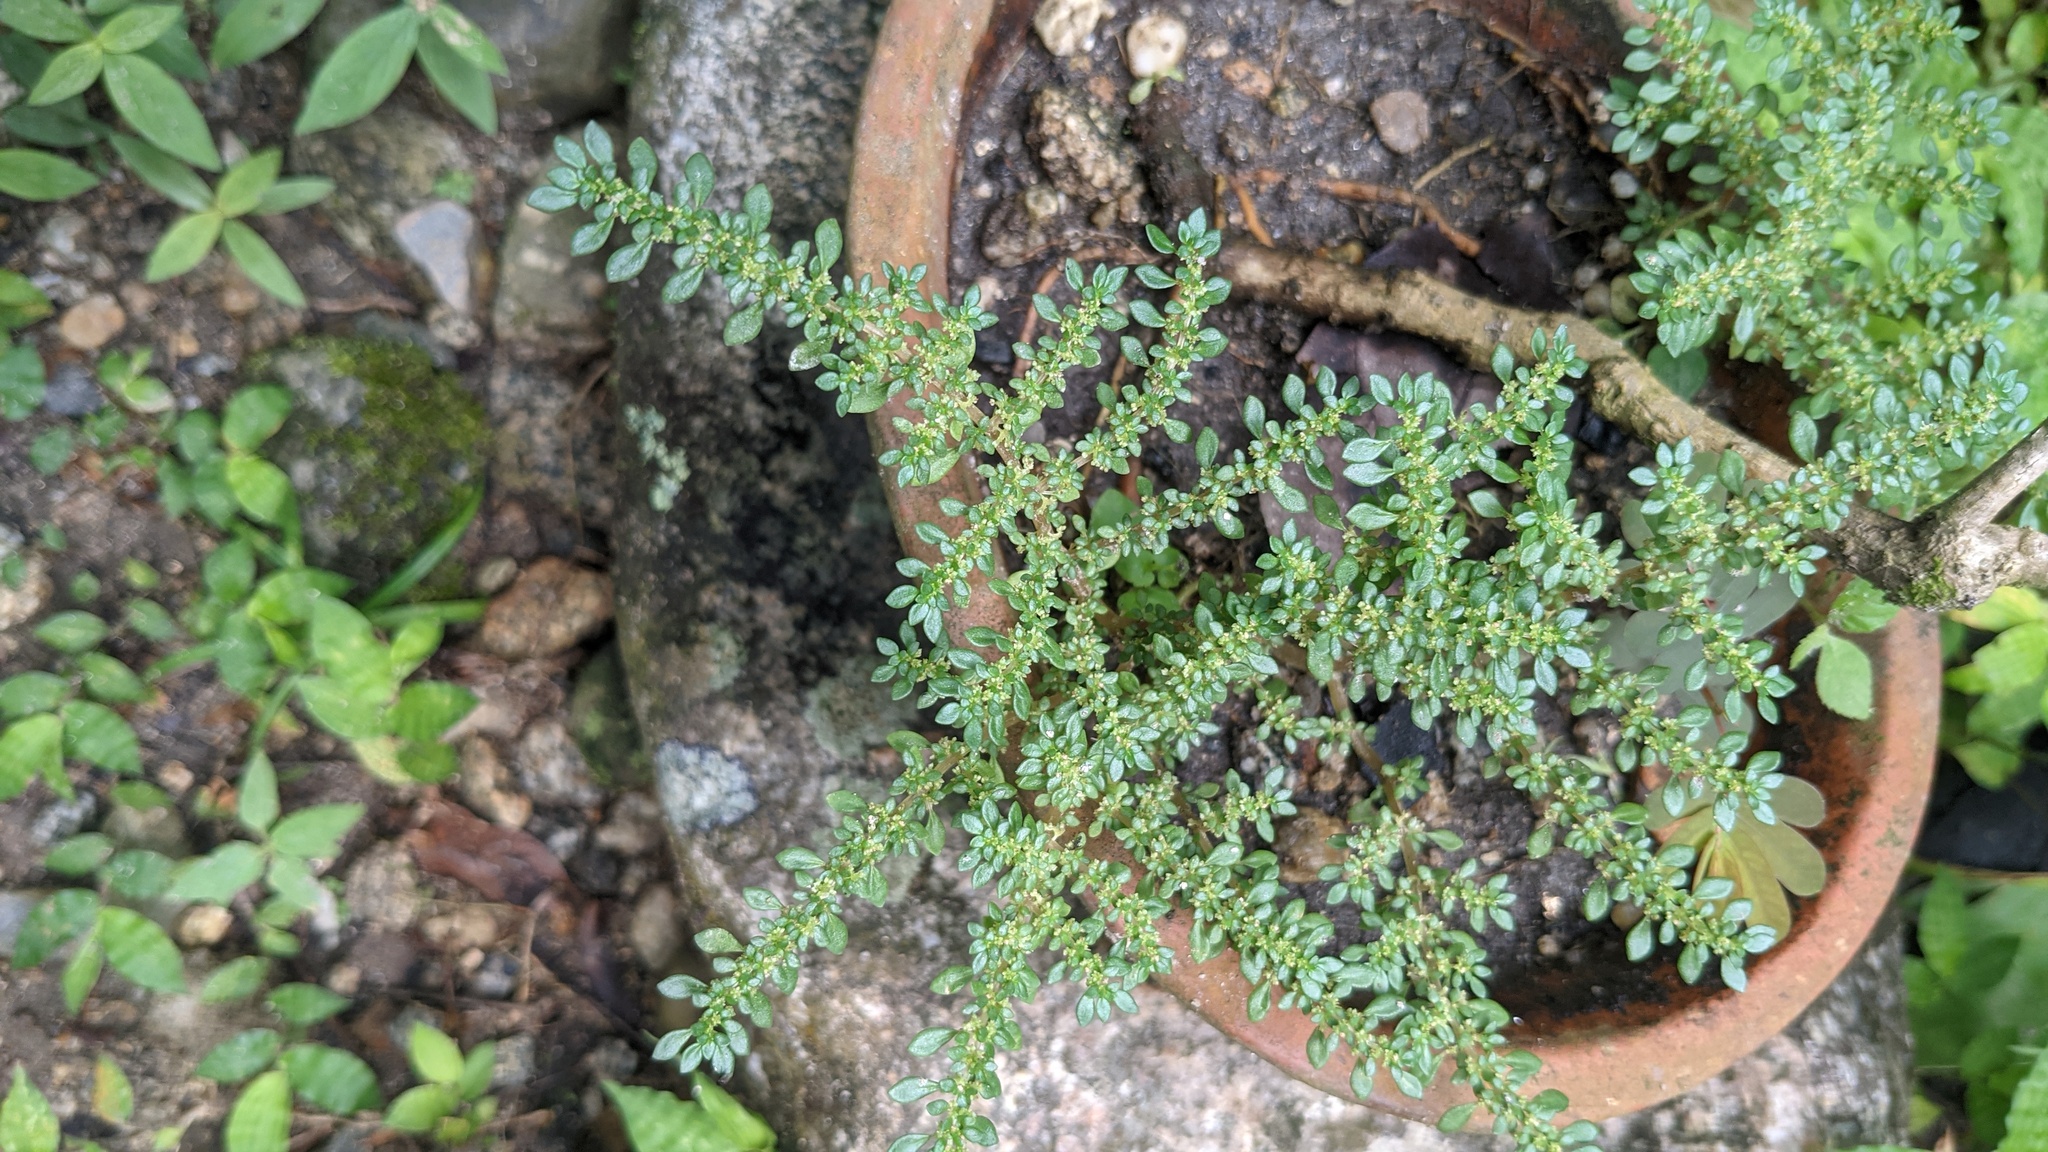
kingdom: Plantae
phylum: Tracheophyta
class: Magnoliopsida
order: Rosales
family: Urticaceae
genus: Pilea
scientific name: Pilea microphylla
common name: Artillery-plant
